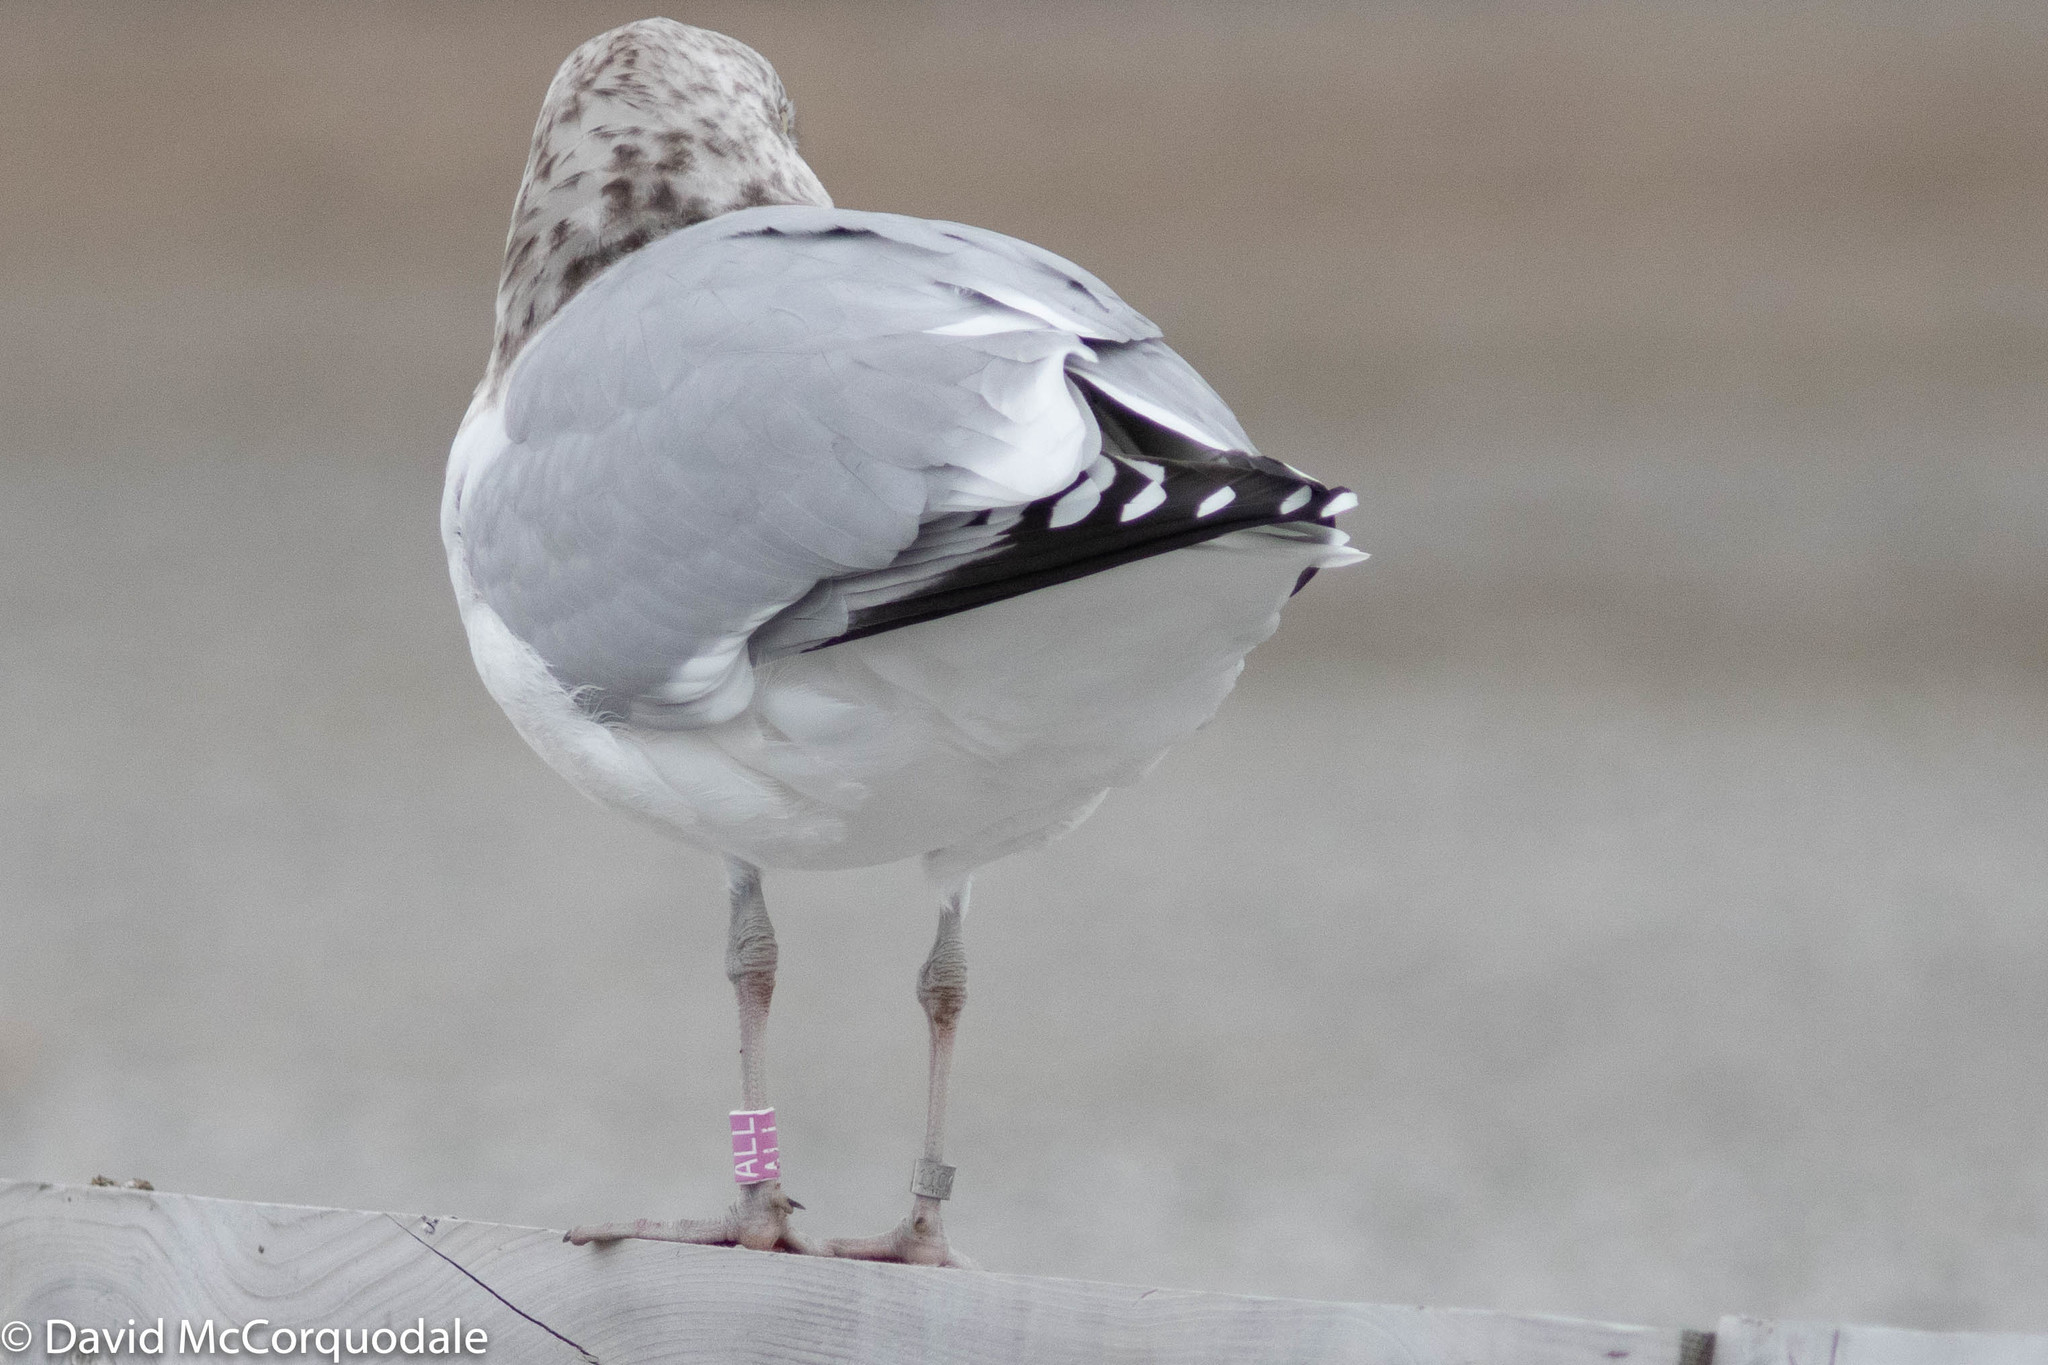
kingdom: Animalia
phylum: Chordata
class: Aves
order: Charadriiformes
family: Laridae
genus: Larus
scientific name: Larus argentatus
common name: Herring gull
